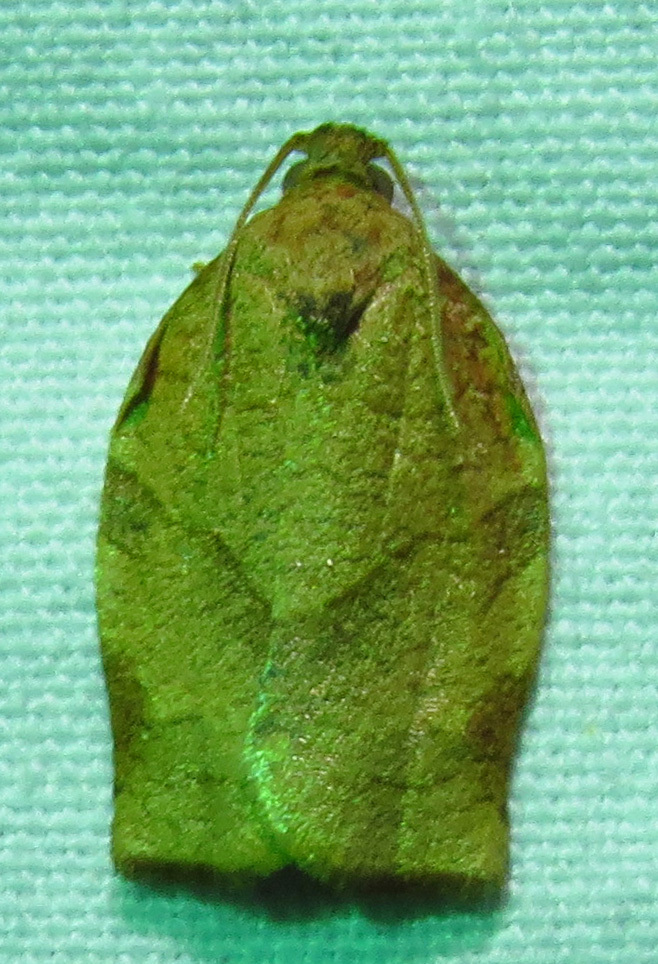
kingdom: Animalia
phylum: Arthropoda
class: Insecta
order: Lepidoptera
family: Tortricidae
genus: Choristoneura
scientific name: Choristoneura rosaceana
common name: Oblique-banded leafroller moth
